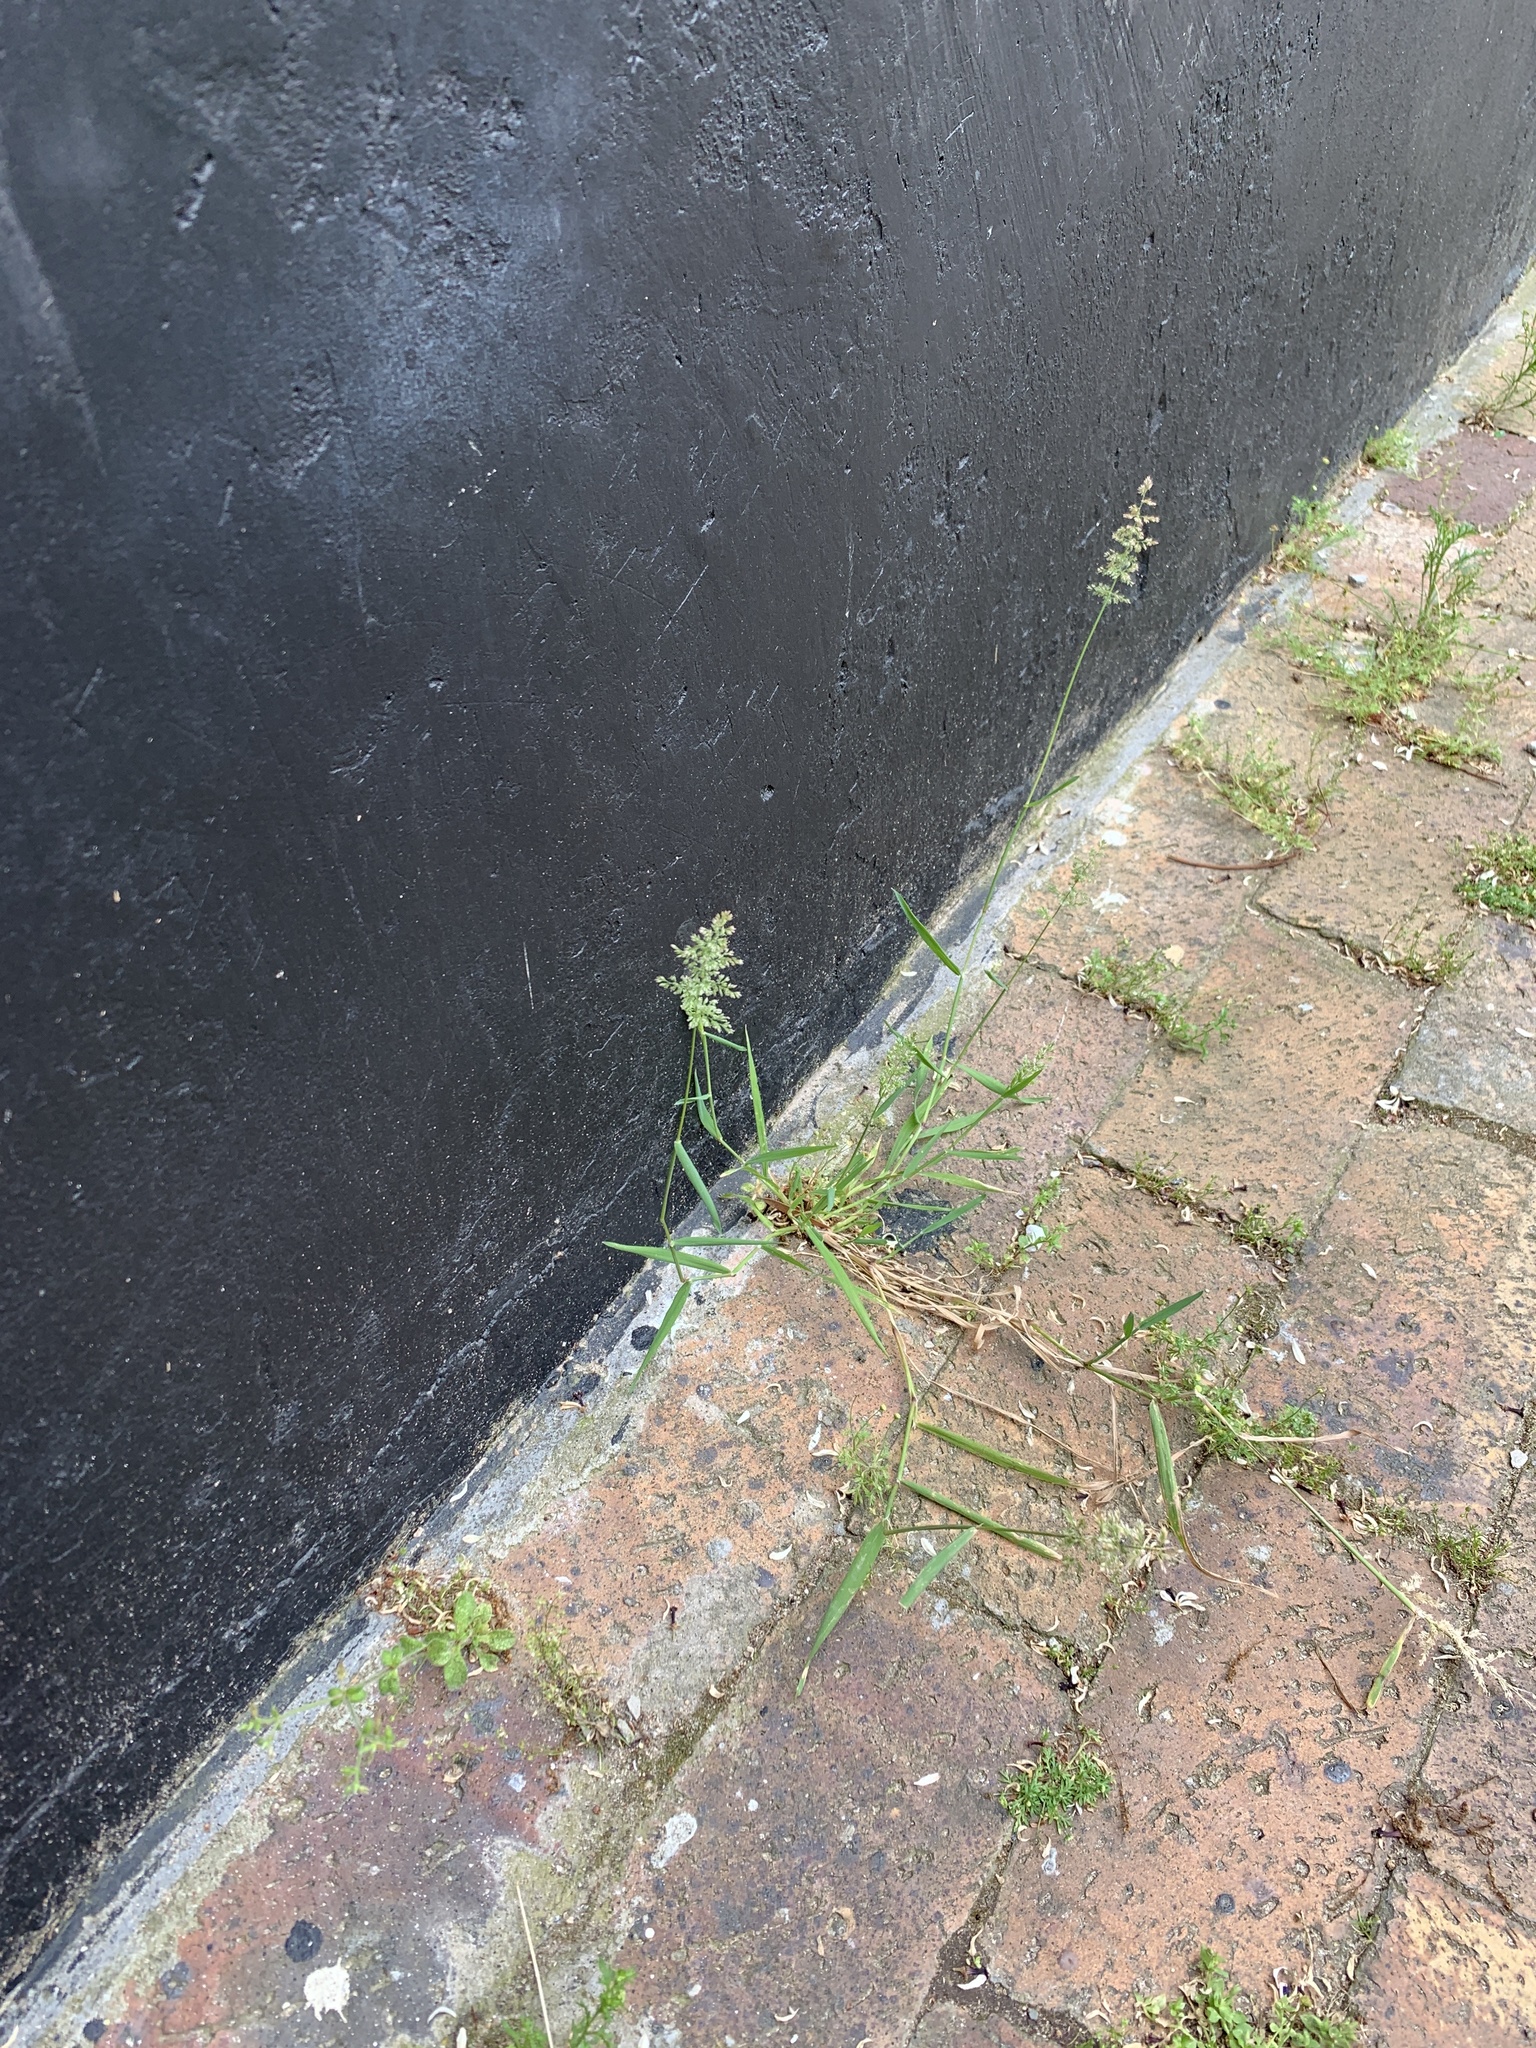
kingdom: Plantae
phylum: Tracheophyta
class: Liliopsida
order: Poales
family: Poaceae
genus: Polypogon
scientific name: Polypogon viridis
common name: Water bent
